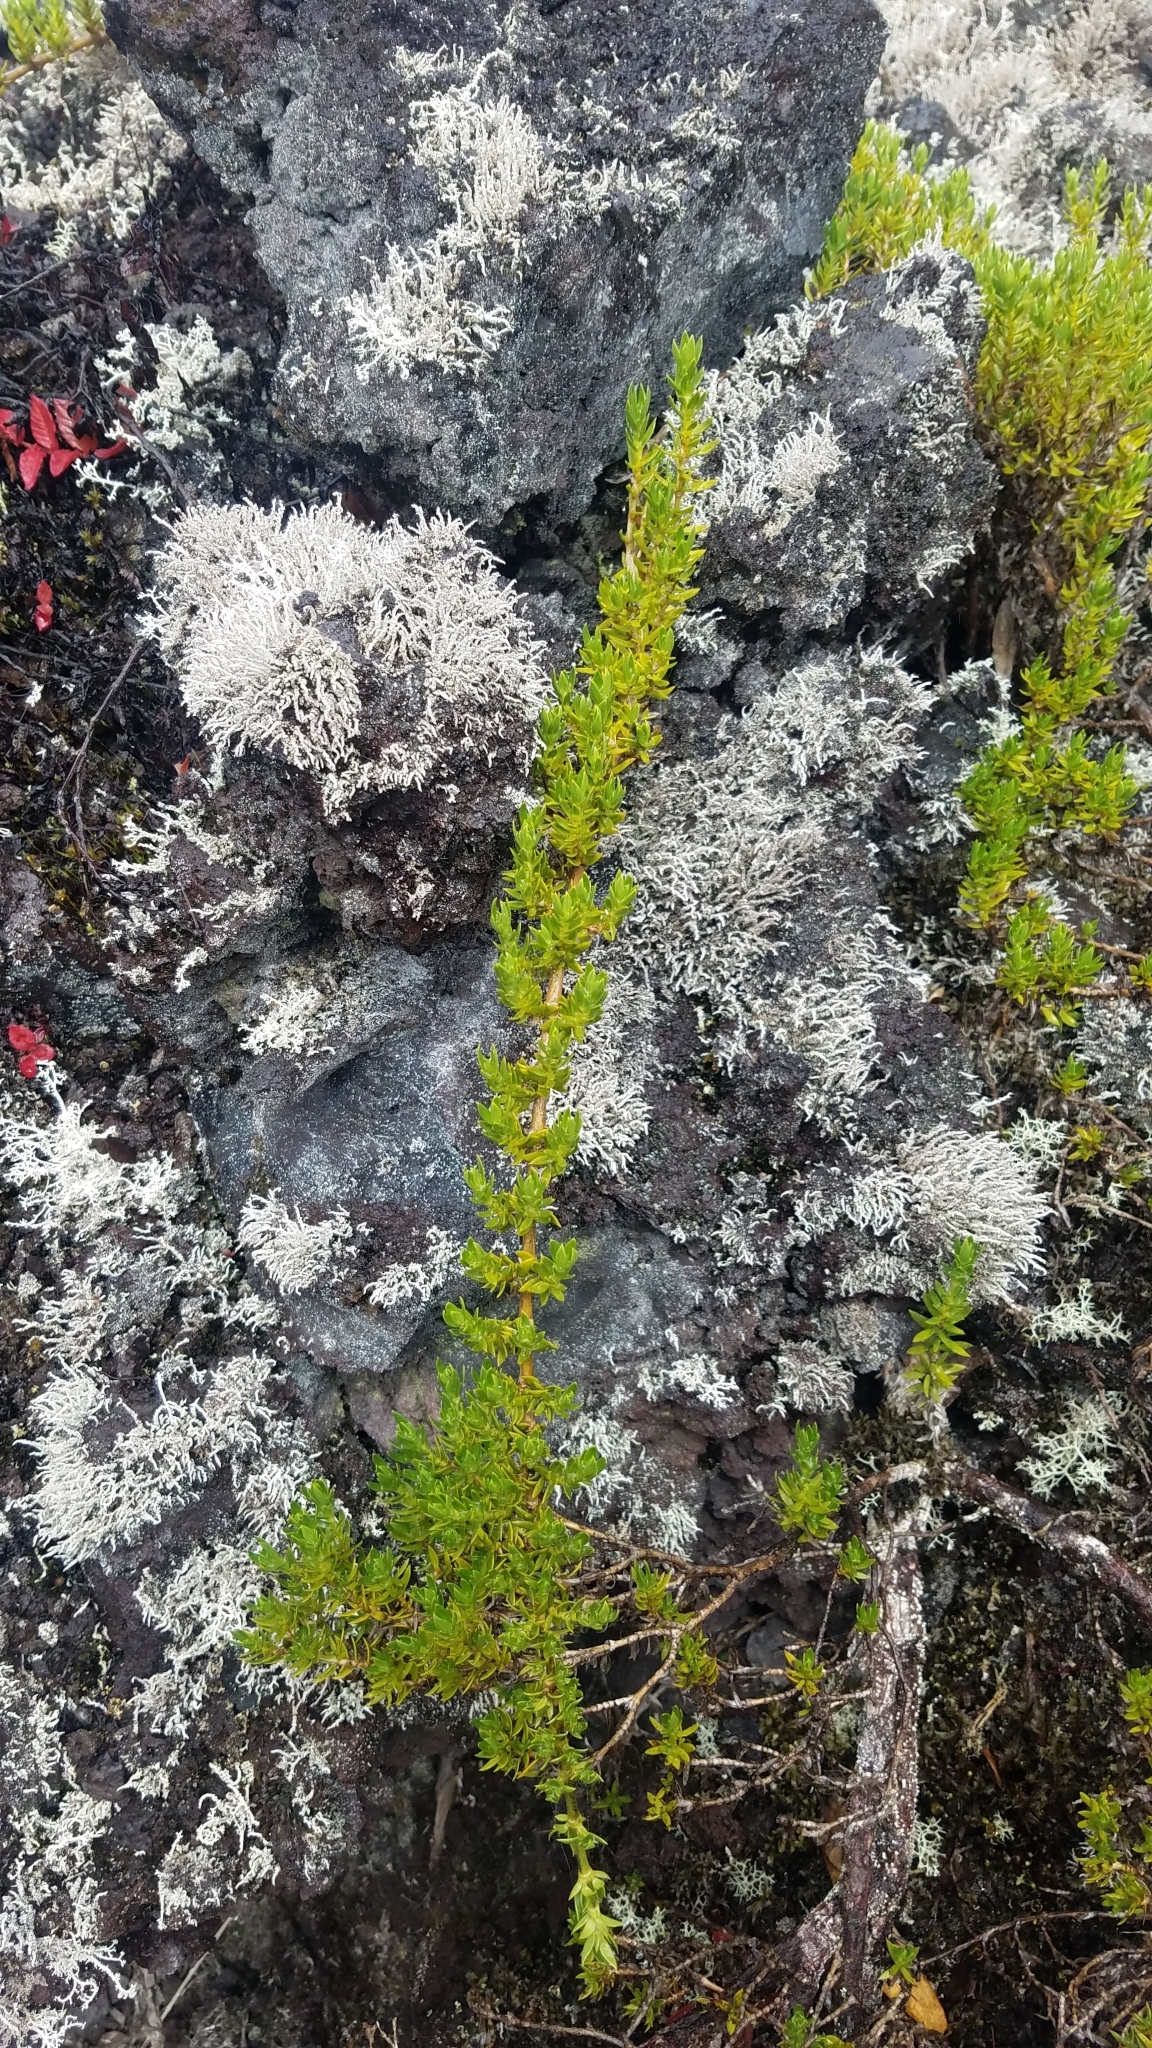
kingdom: Plantae
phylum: Tracheophyta
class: Magnoliopsida
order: Gentianales
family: Rubiaceae
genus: Coprosma
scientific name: Coprosma ernodeoides
